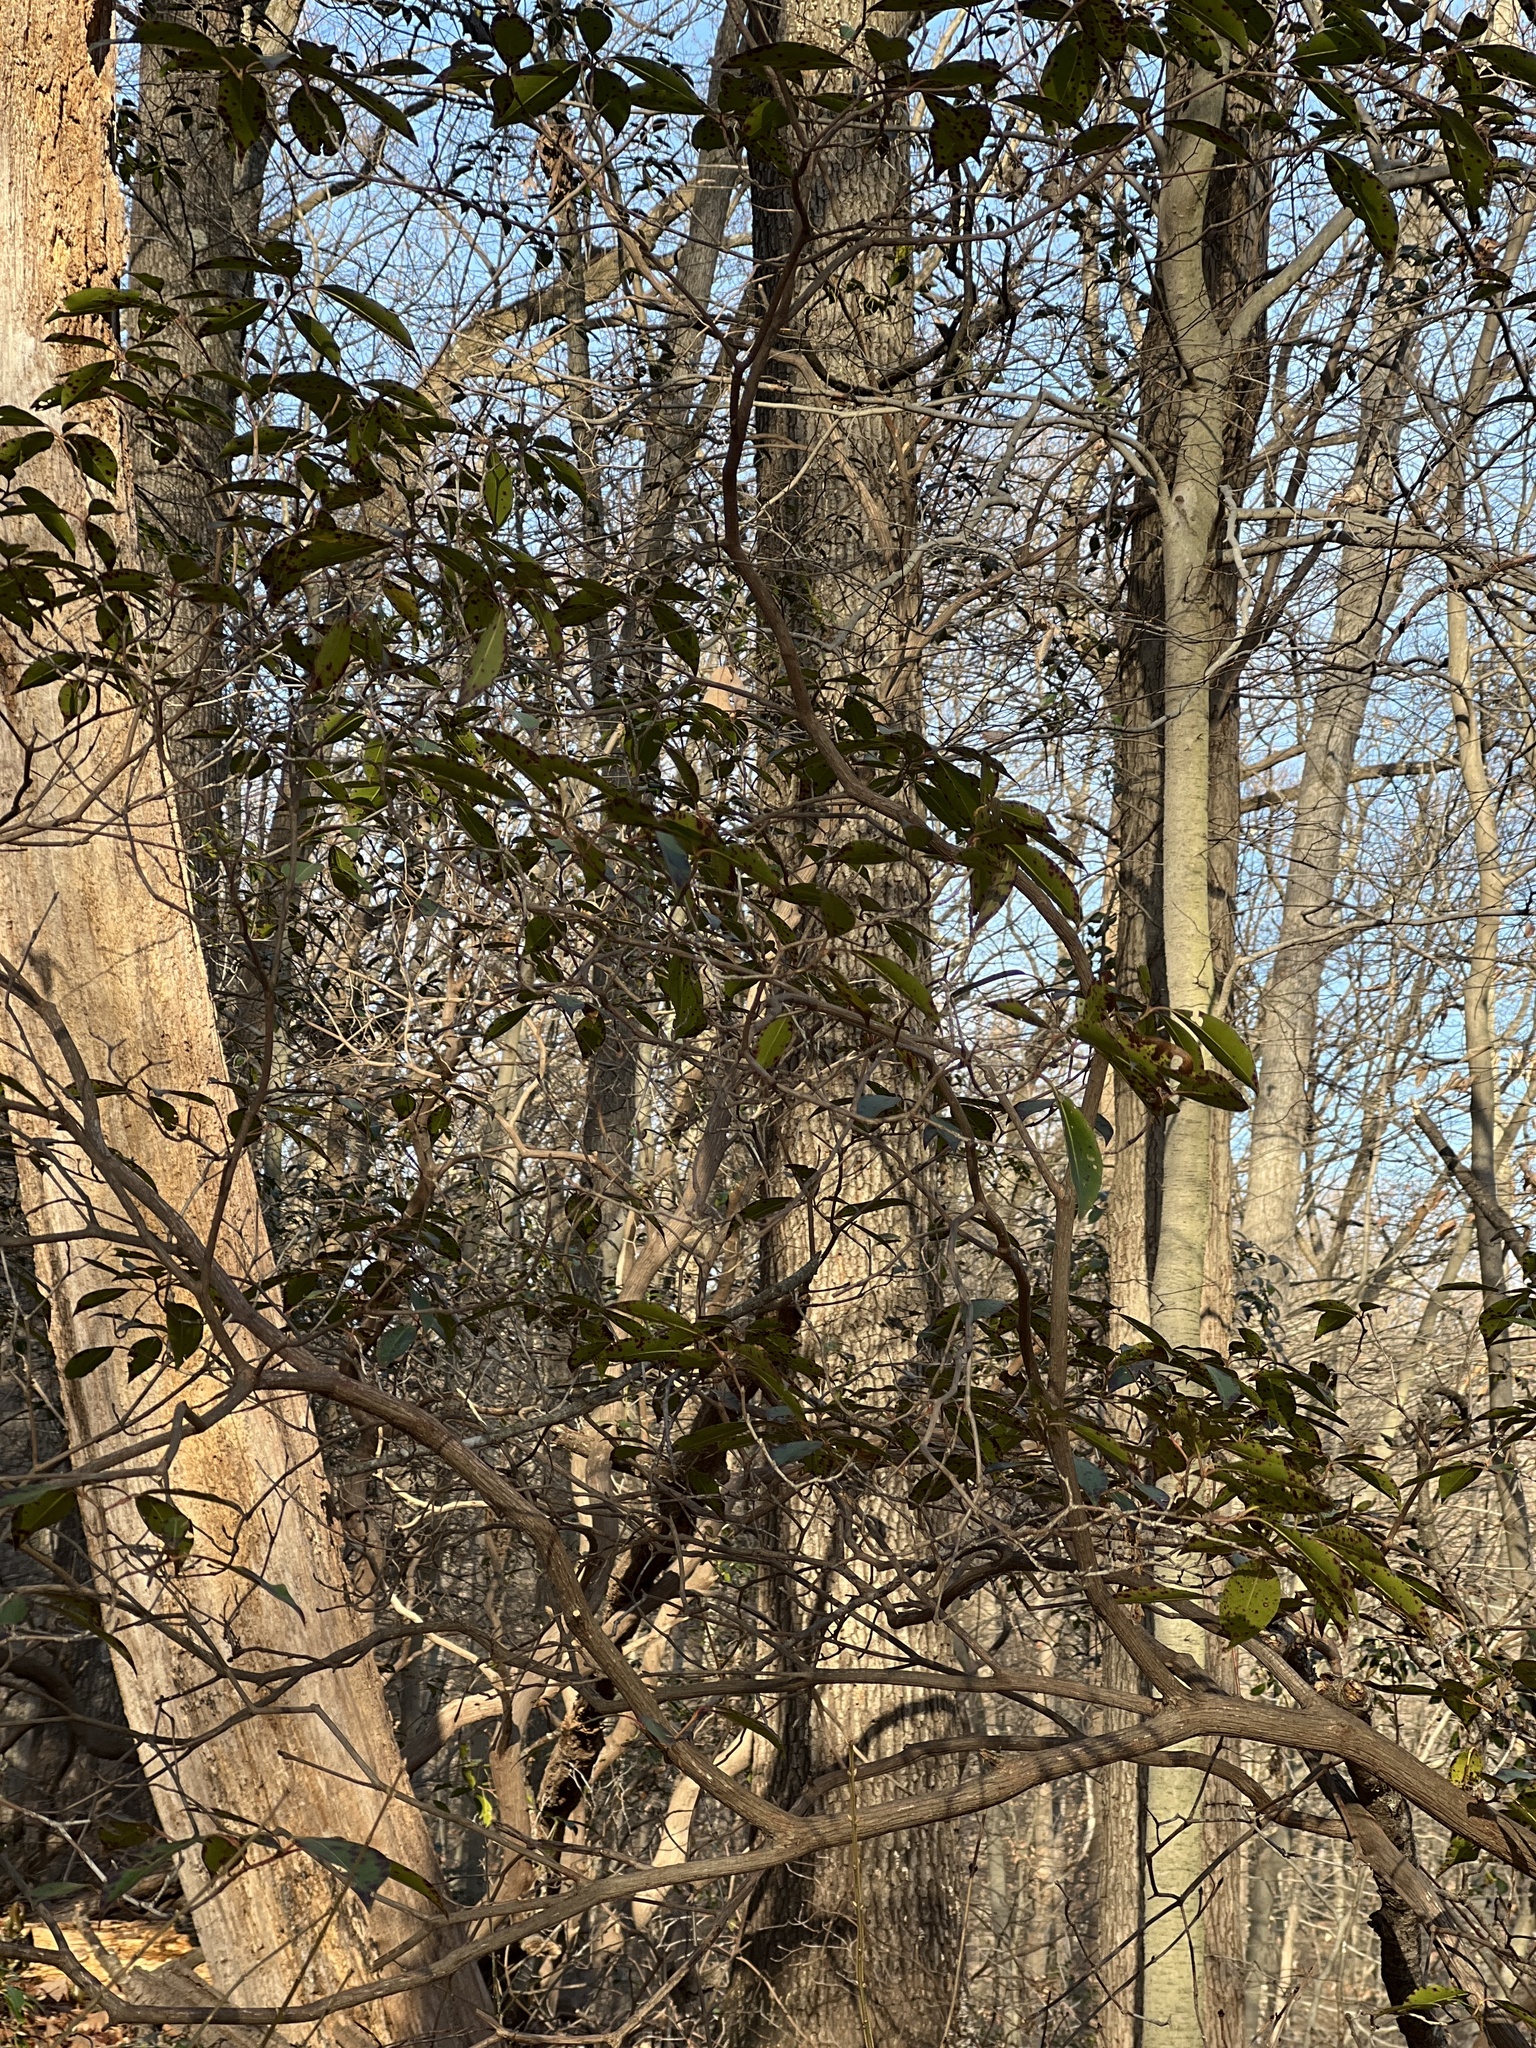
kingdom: Plantae
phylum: Tracheophyta
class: Magnoliopsida
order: Ericales
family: Ericaceae
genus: Kalmia
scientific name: Kalmia latifolia
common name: Mountain-laurel
